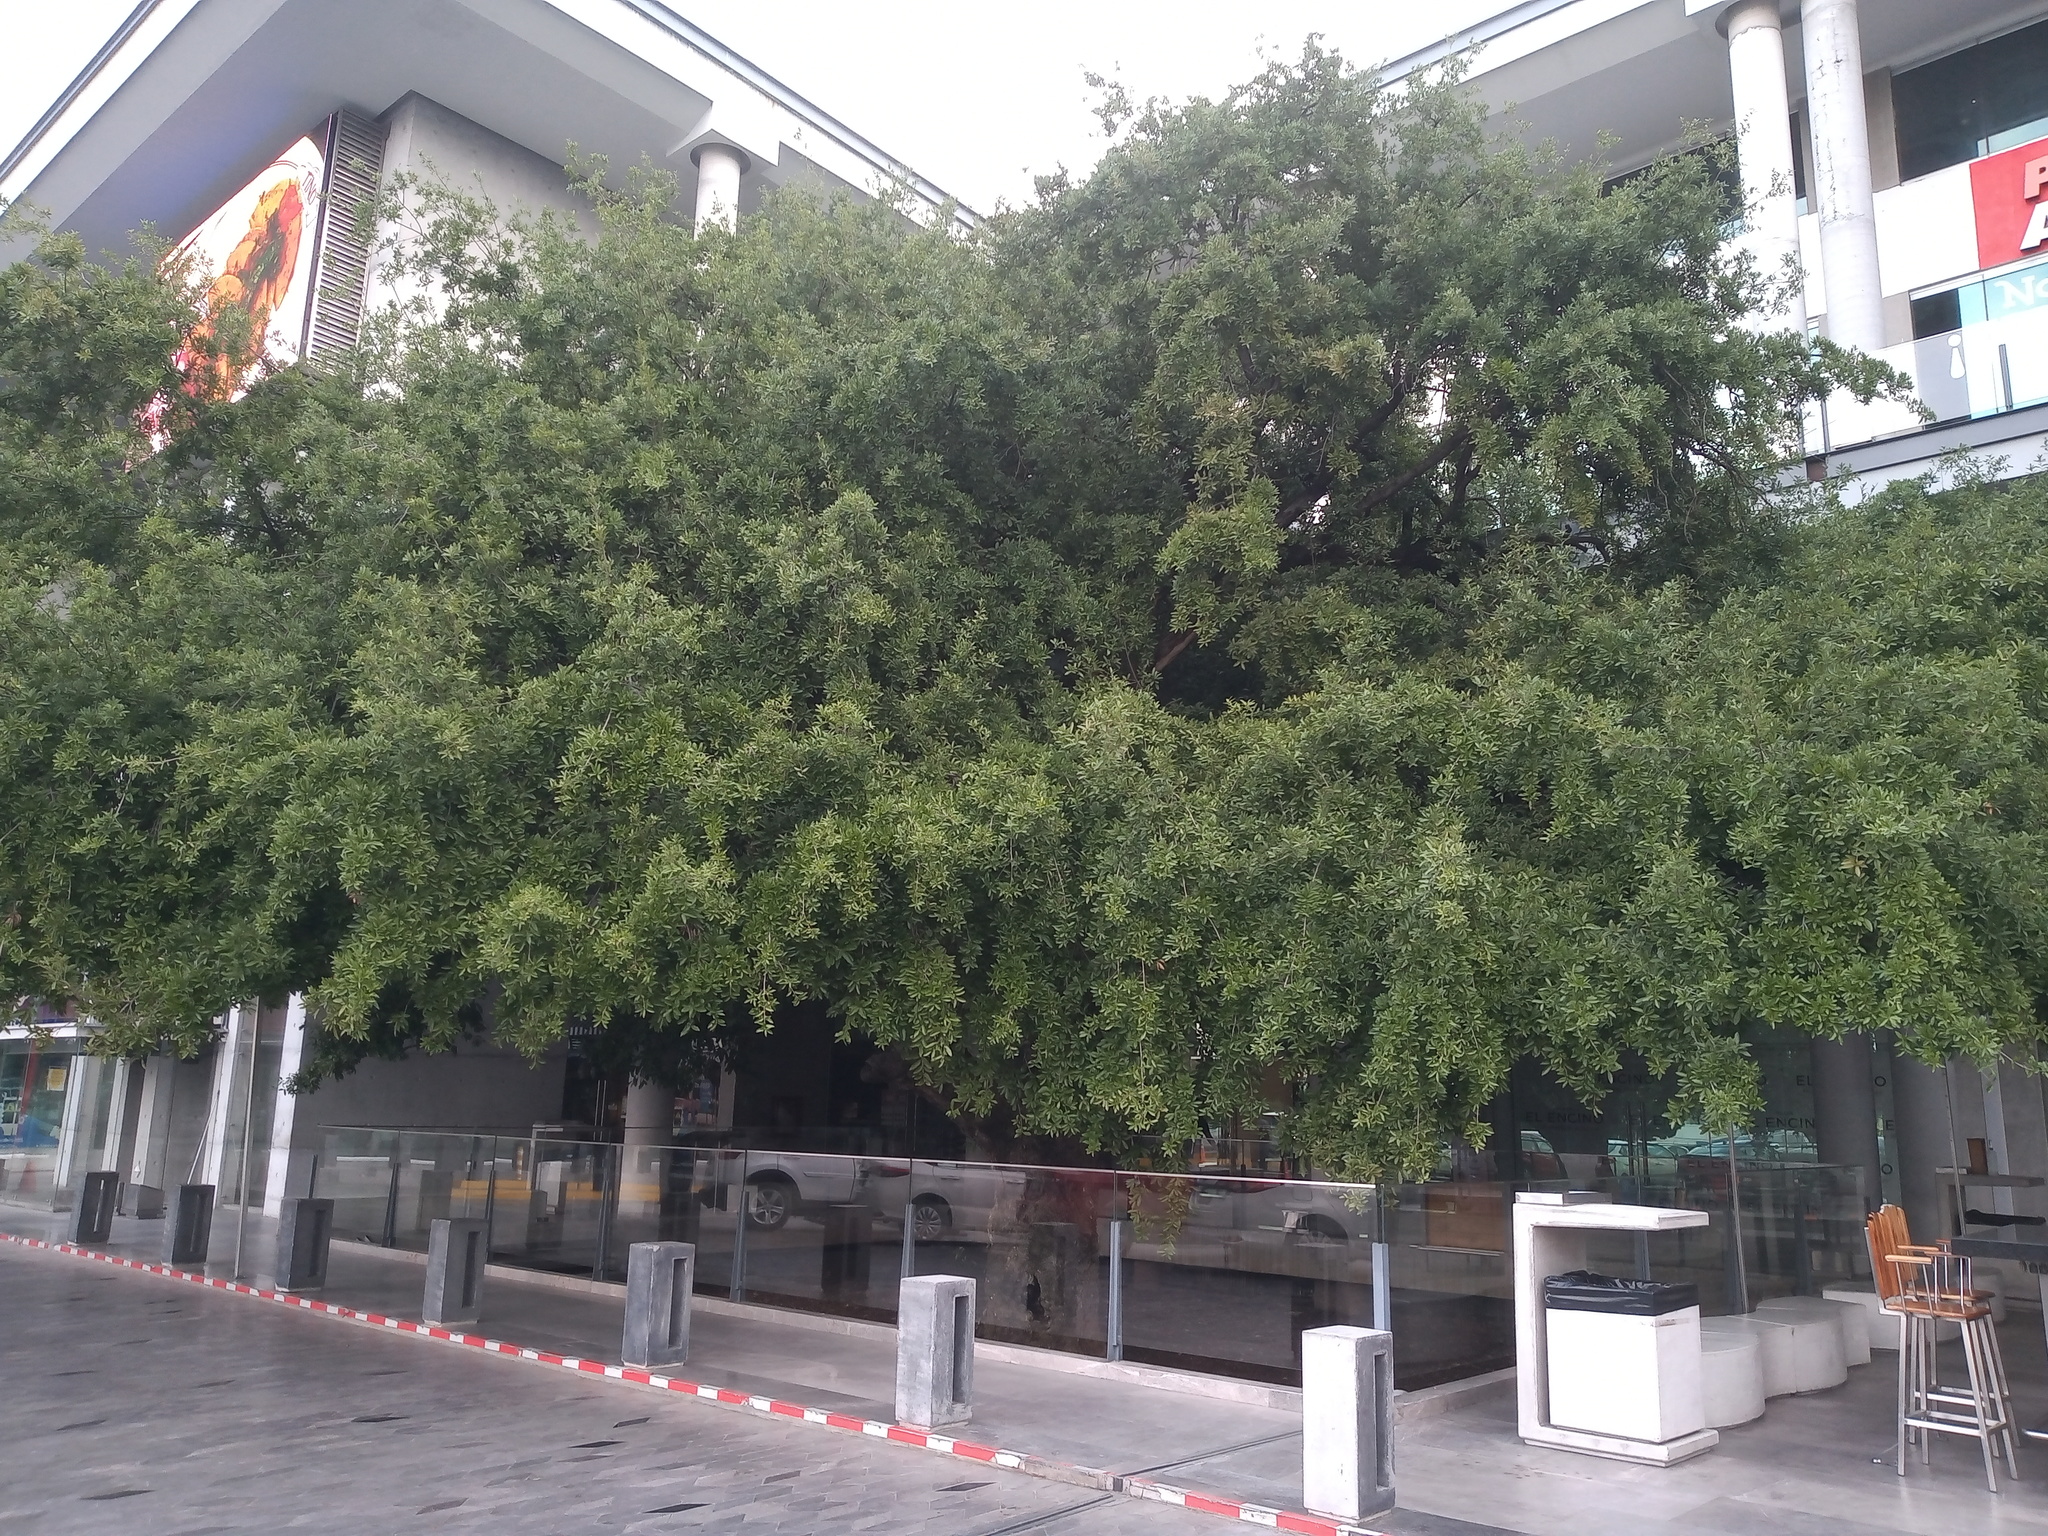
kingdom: Plantae
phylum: Tracheophyta
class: Magnoliopsida
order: Fagales
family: Fagaceae
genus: Quercus
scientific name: Quercus vaseyana
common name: Sandpaper oak
